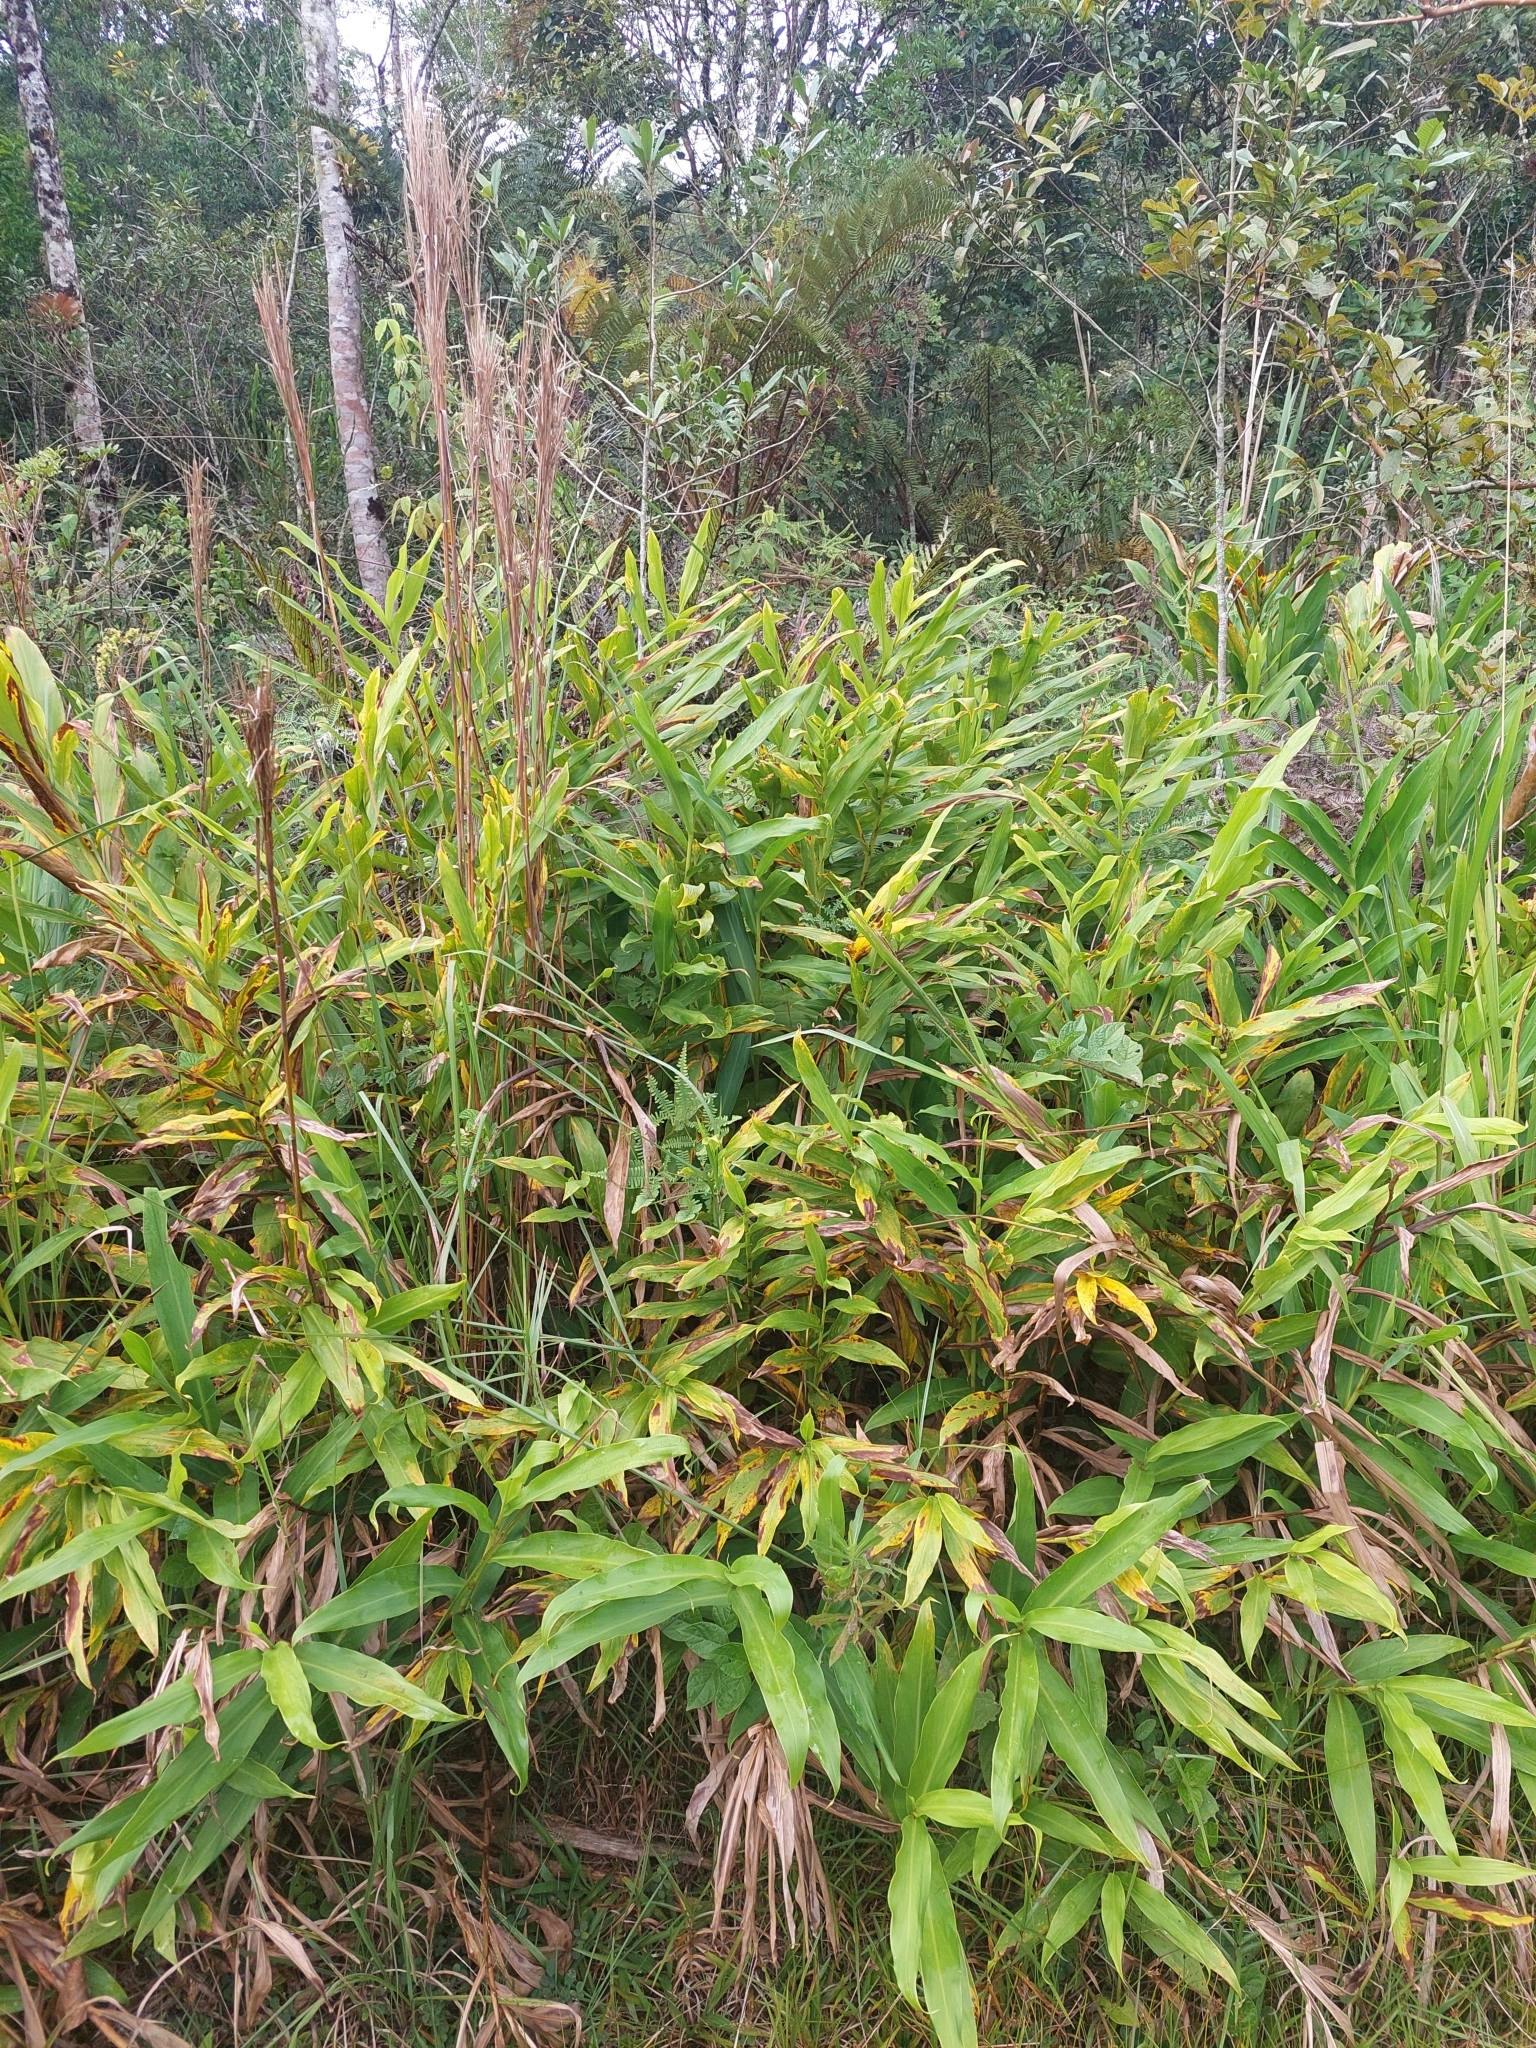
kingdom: Plantae
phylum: Tracheophyta
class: Liliopsida
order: Zingiberales
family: Zingiberaceae
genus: Hedychium
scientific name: Hedychium coronarium
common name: White garland-lily
